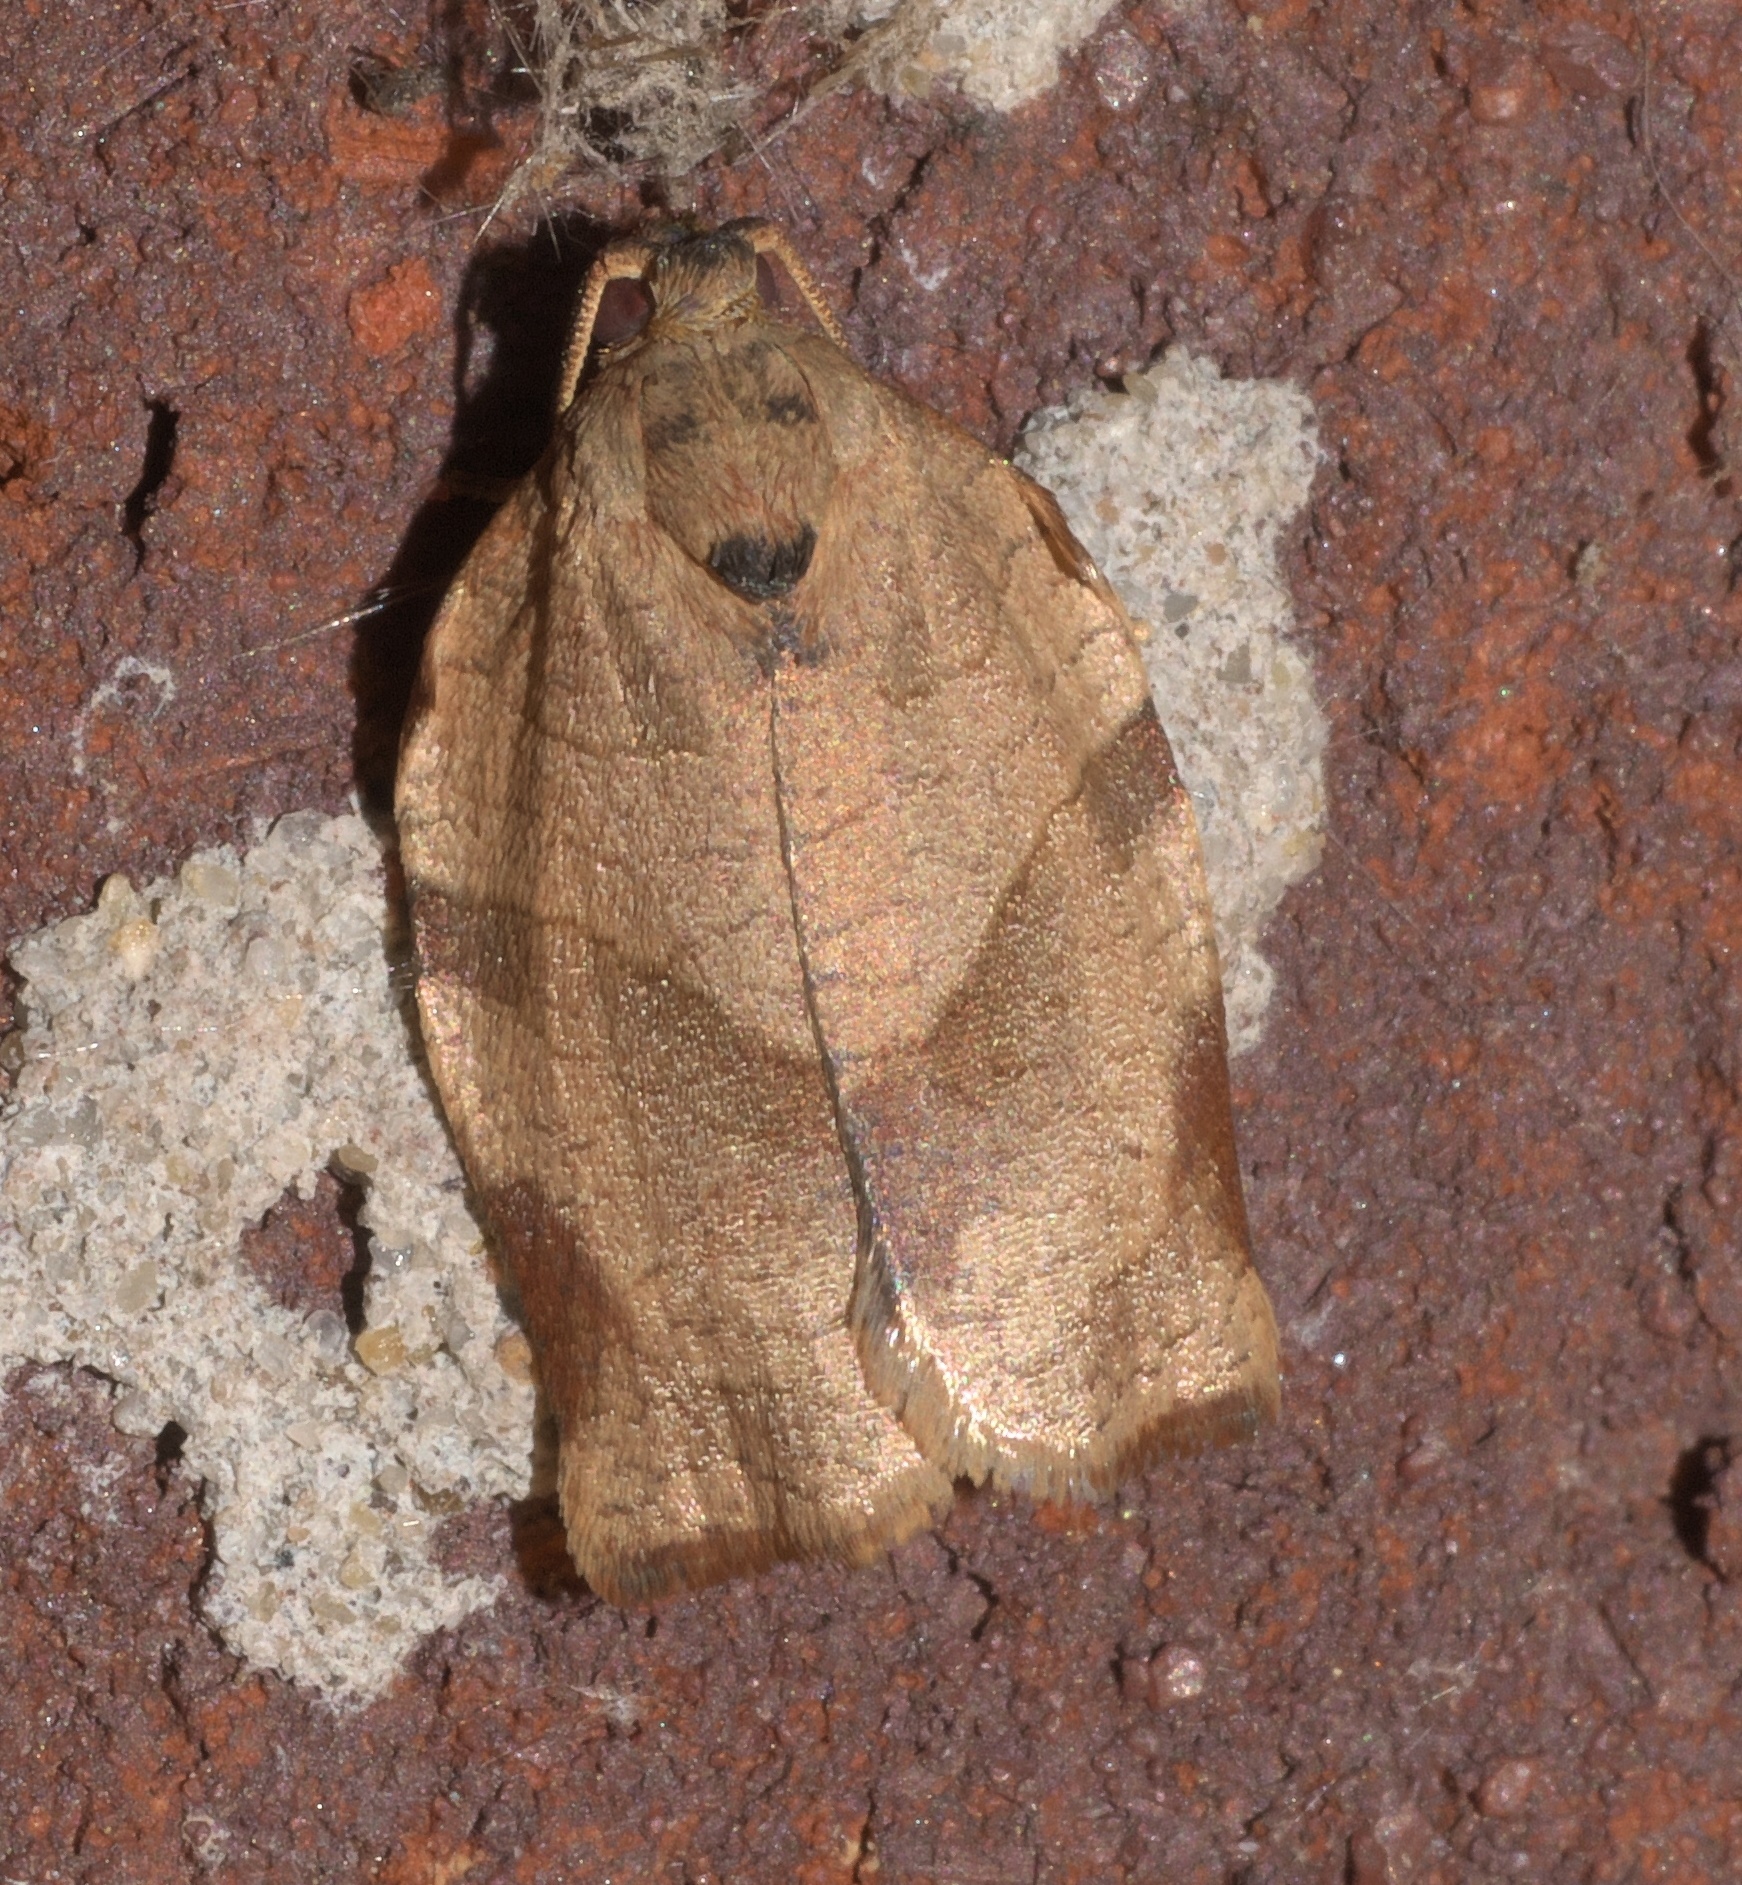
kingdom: Animalia
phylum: Arthropoda
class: Insecta
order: Lepidoptera
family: Tortricidae
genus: Choristoneura
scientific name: Choristoneura rosaceana
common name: Oblique-banded leafroller moth
